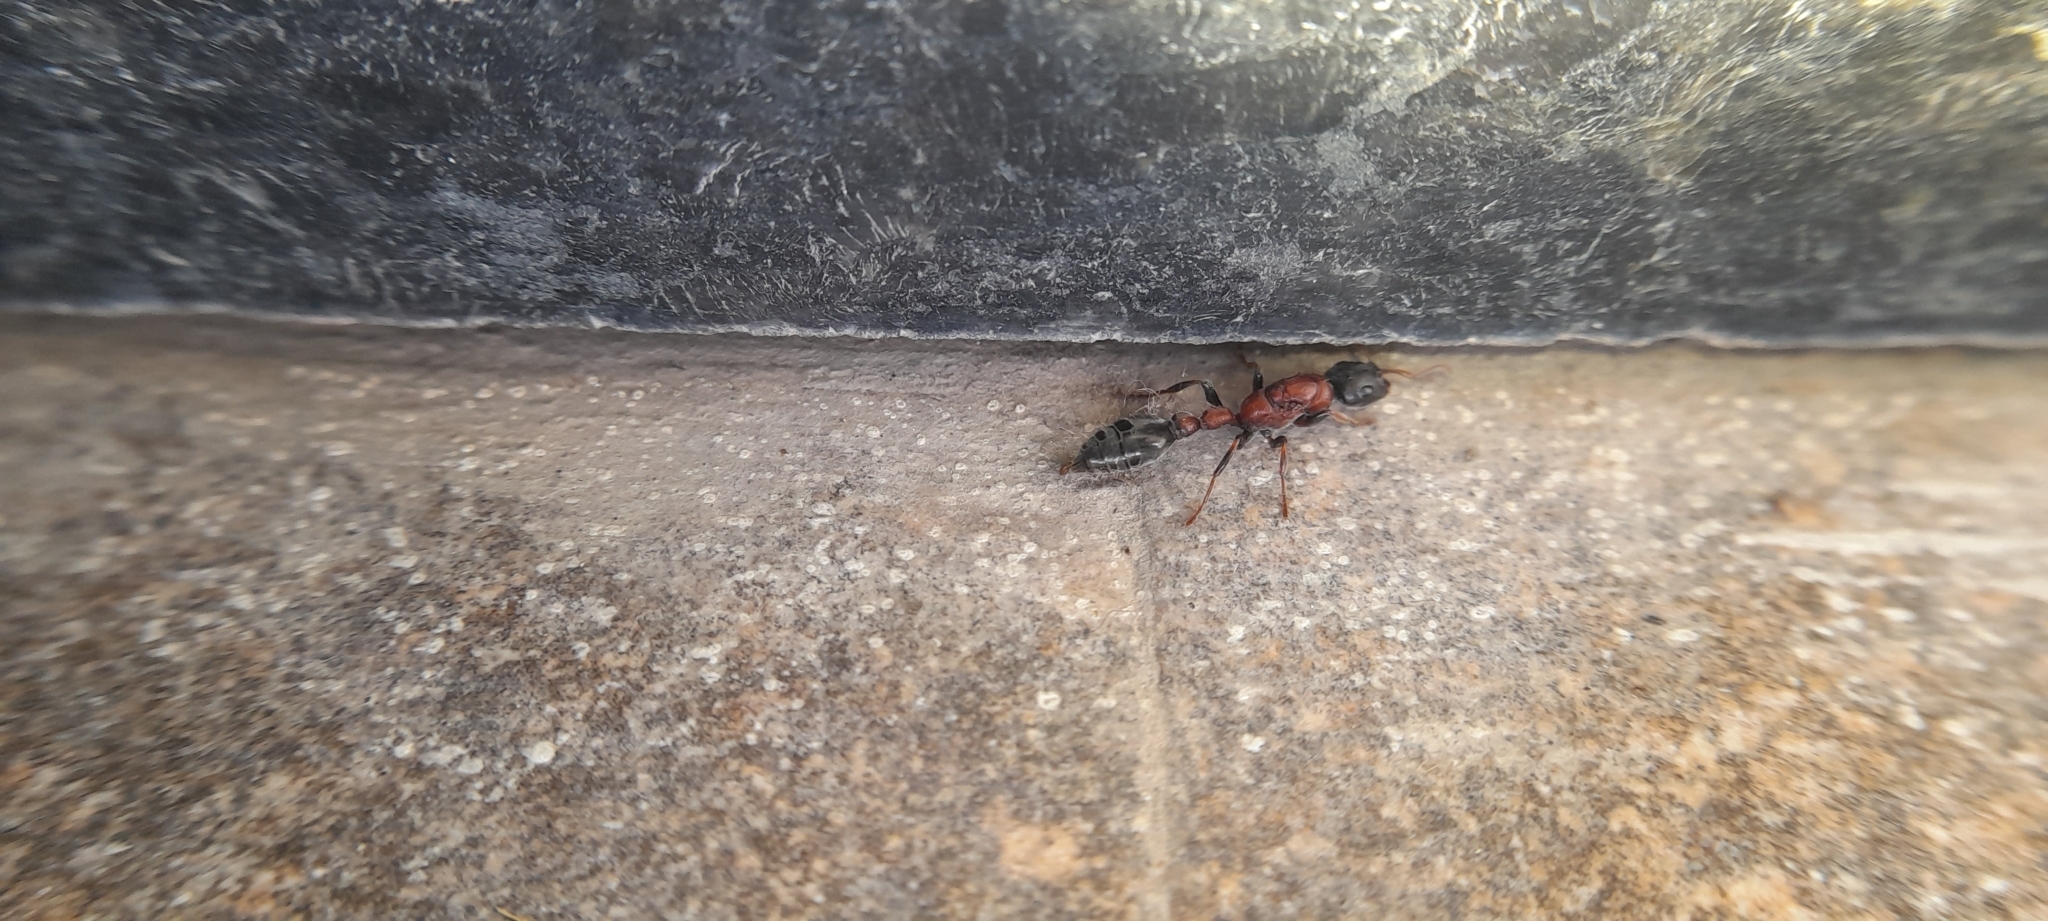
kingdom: Animalia
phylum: Arthropoda
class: Insecta
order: Hymenoptera
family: Formicidae
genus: Tetraponera
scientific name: Tetraponera rufonigra
